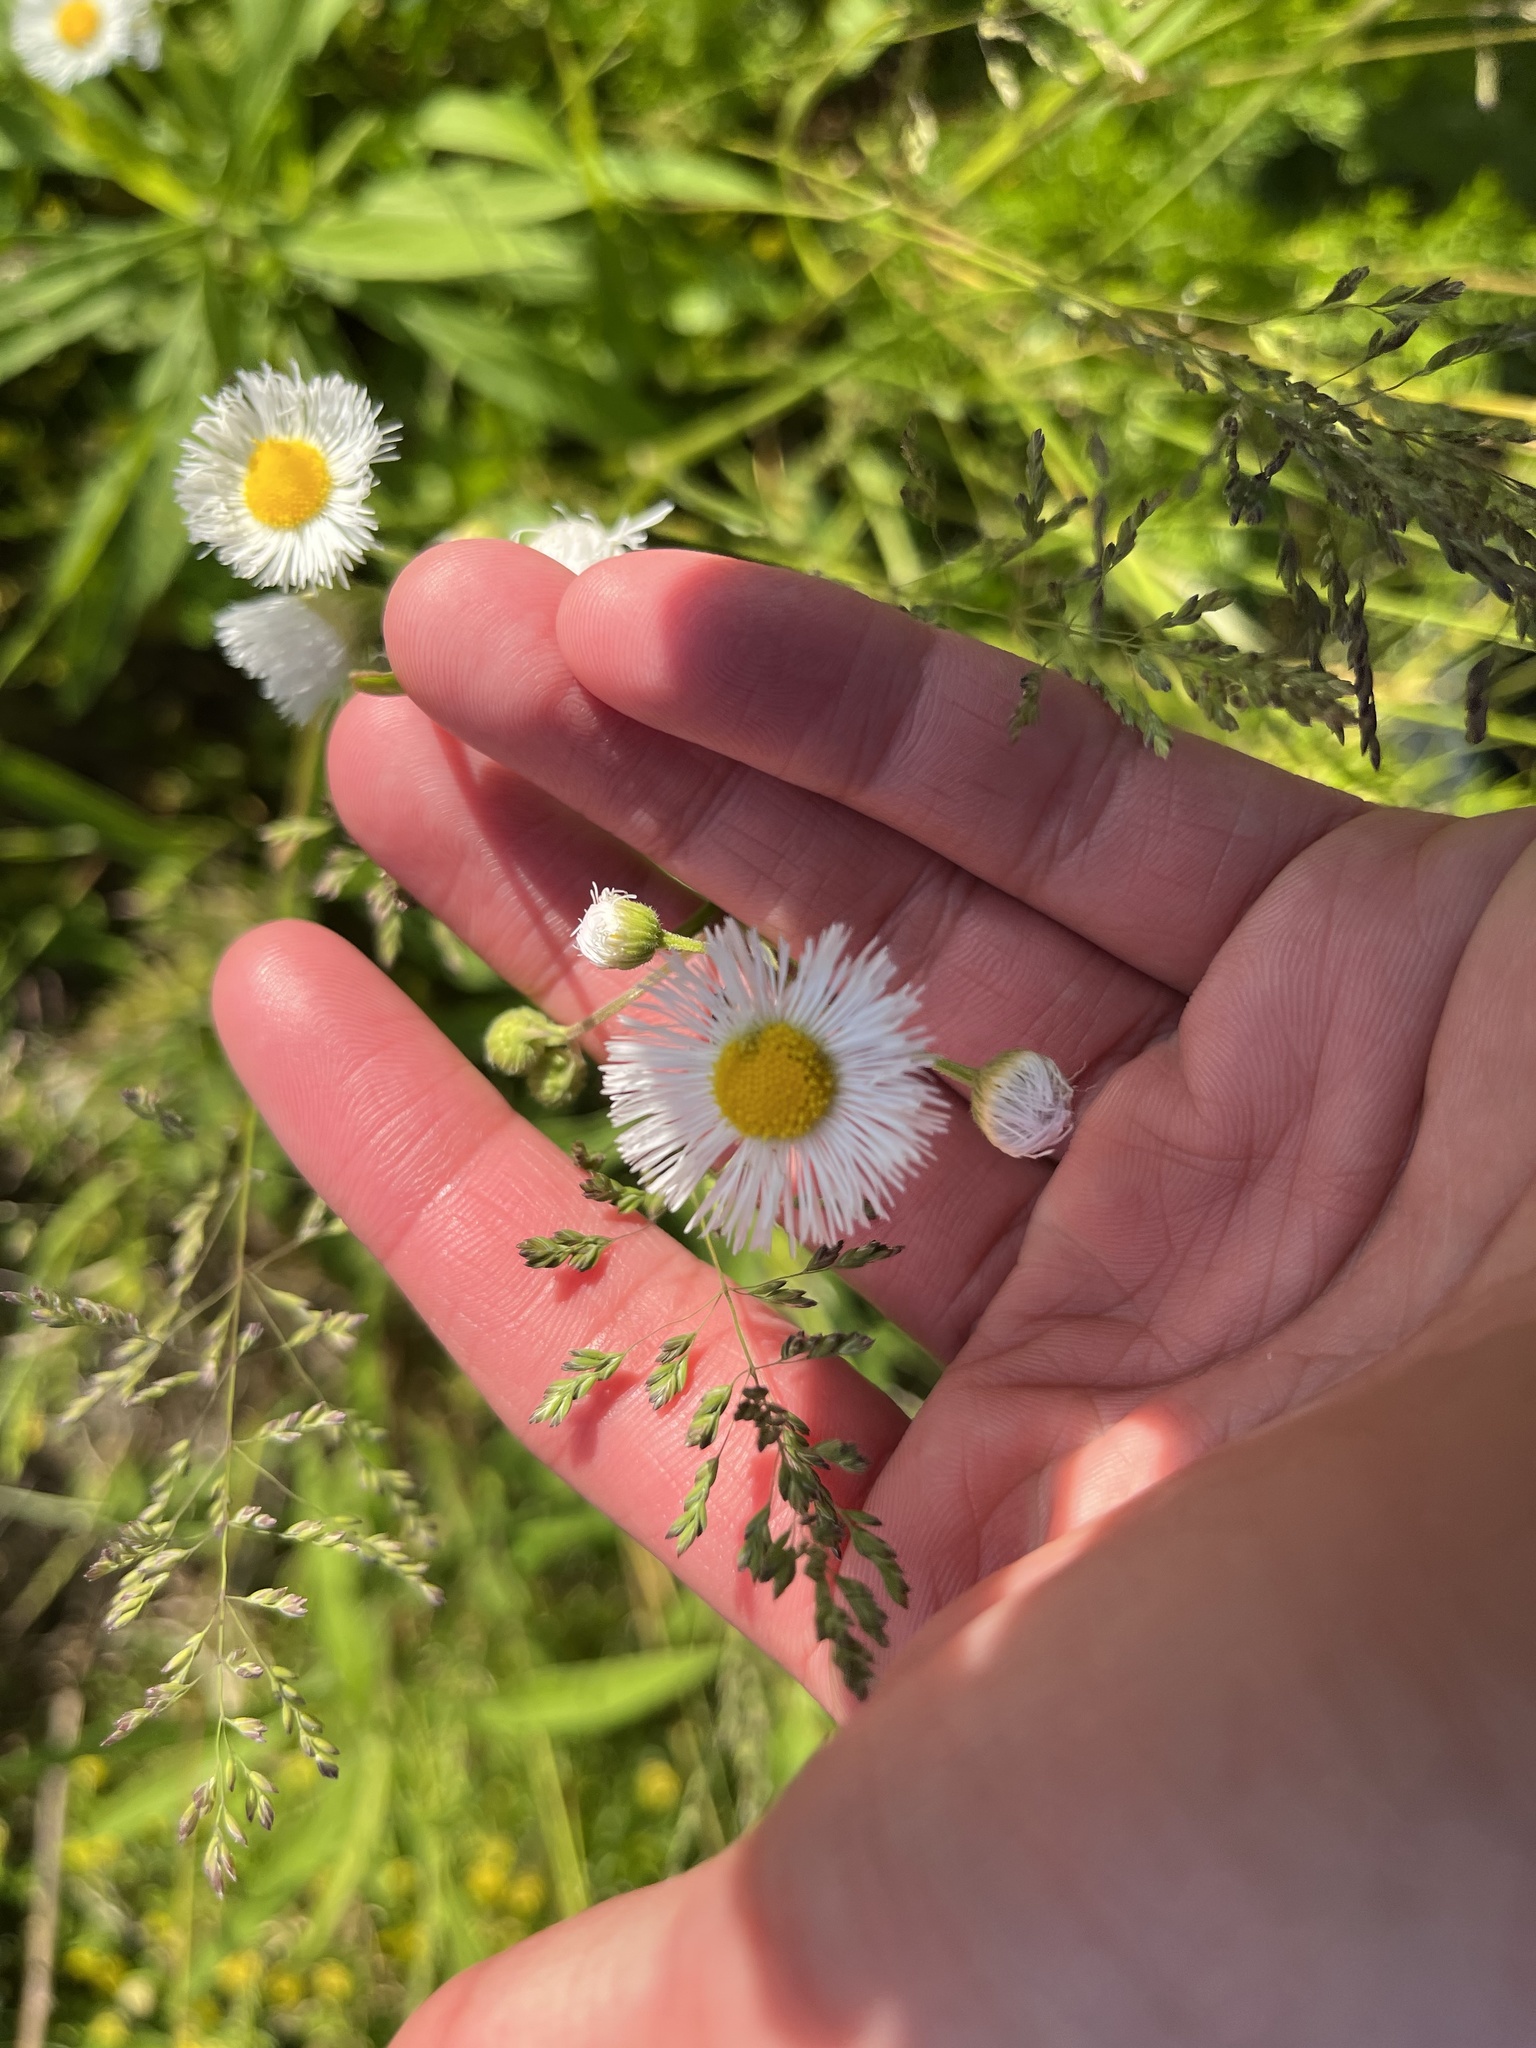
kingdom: Plantae
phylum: Tracheophyta
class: Magnoliopsida
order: Asterales
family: Asteraceae
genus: Erigeron
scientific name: Erigeron philadelphicus
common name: Robin's-plantain
